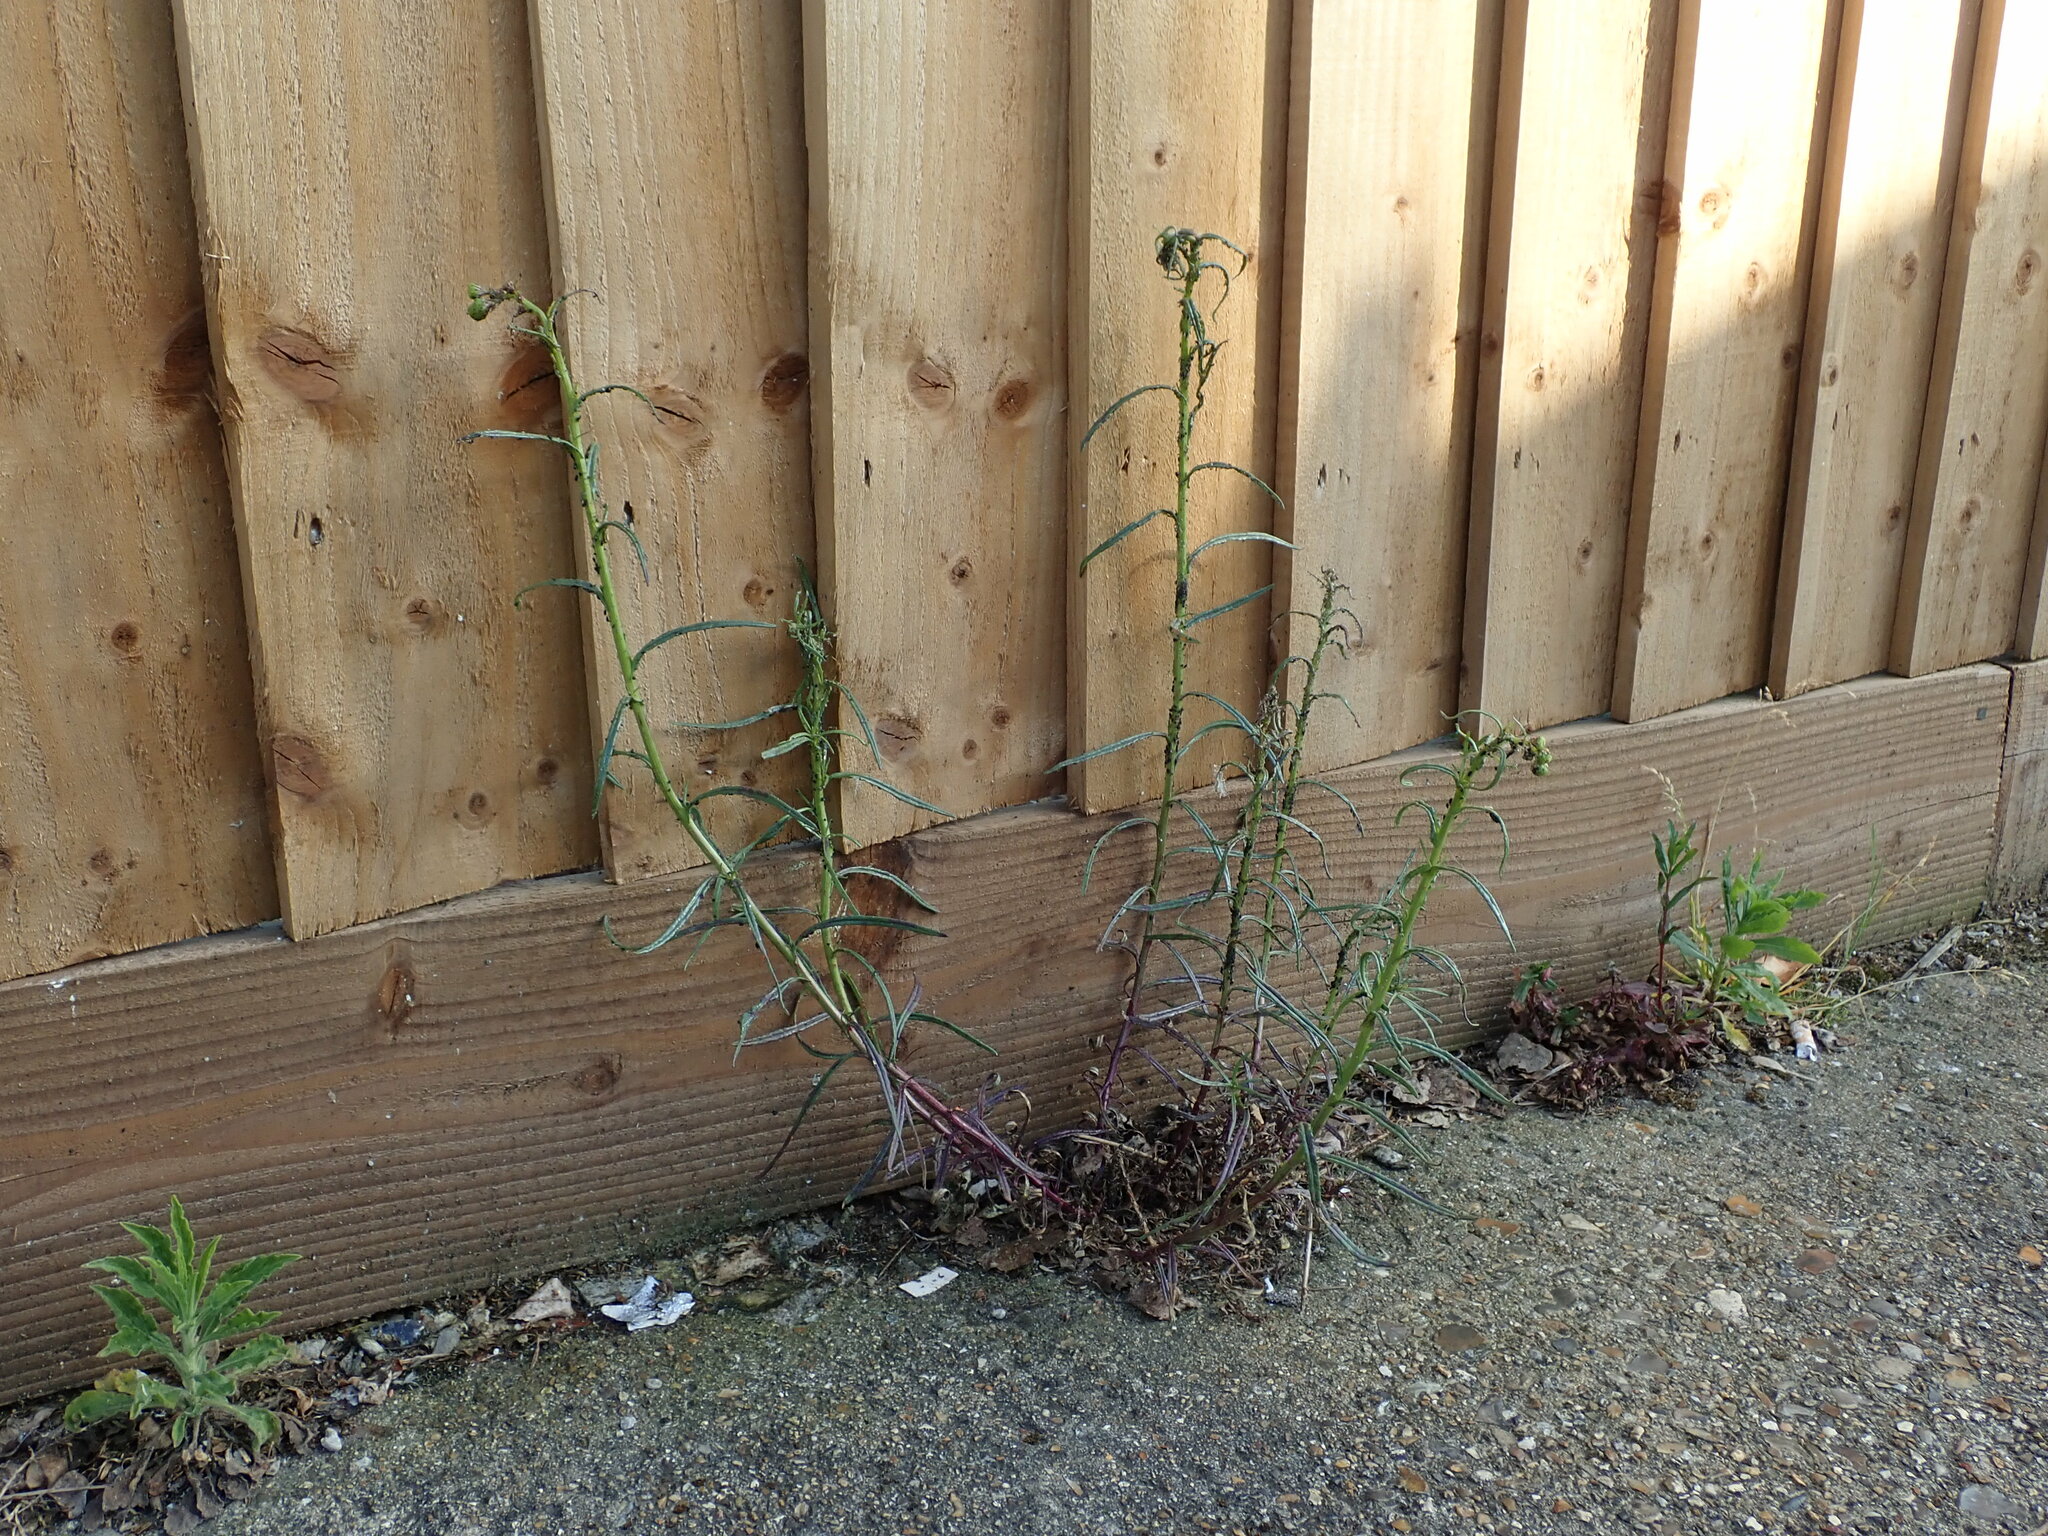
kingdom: Plantae
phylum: Tracheophyta
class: Magnoliopsida
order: Asterales
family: Asteraceae
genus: Senecio
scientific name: Senecio inaequidens
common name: Narrow-leaved ragwort
